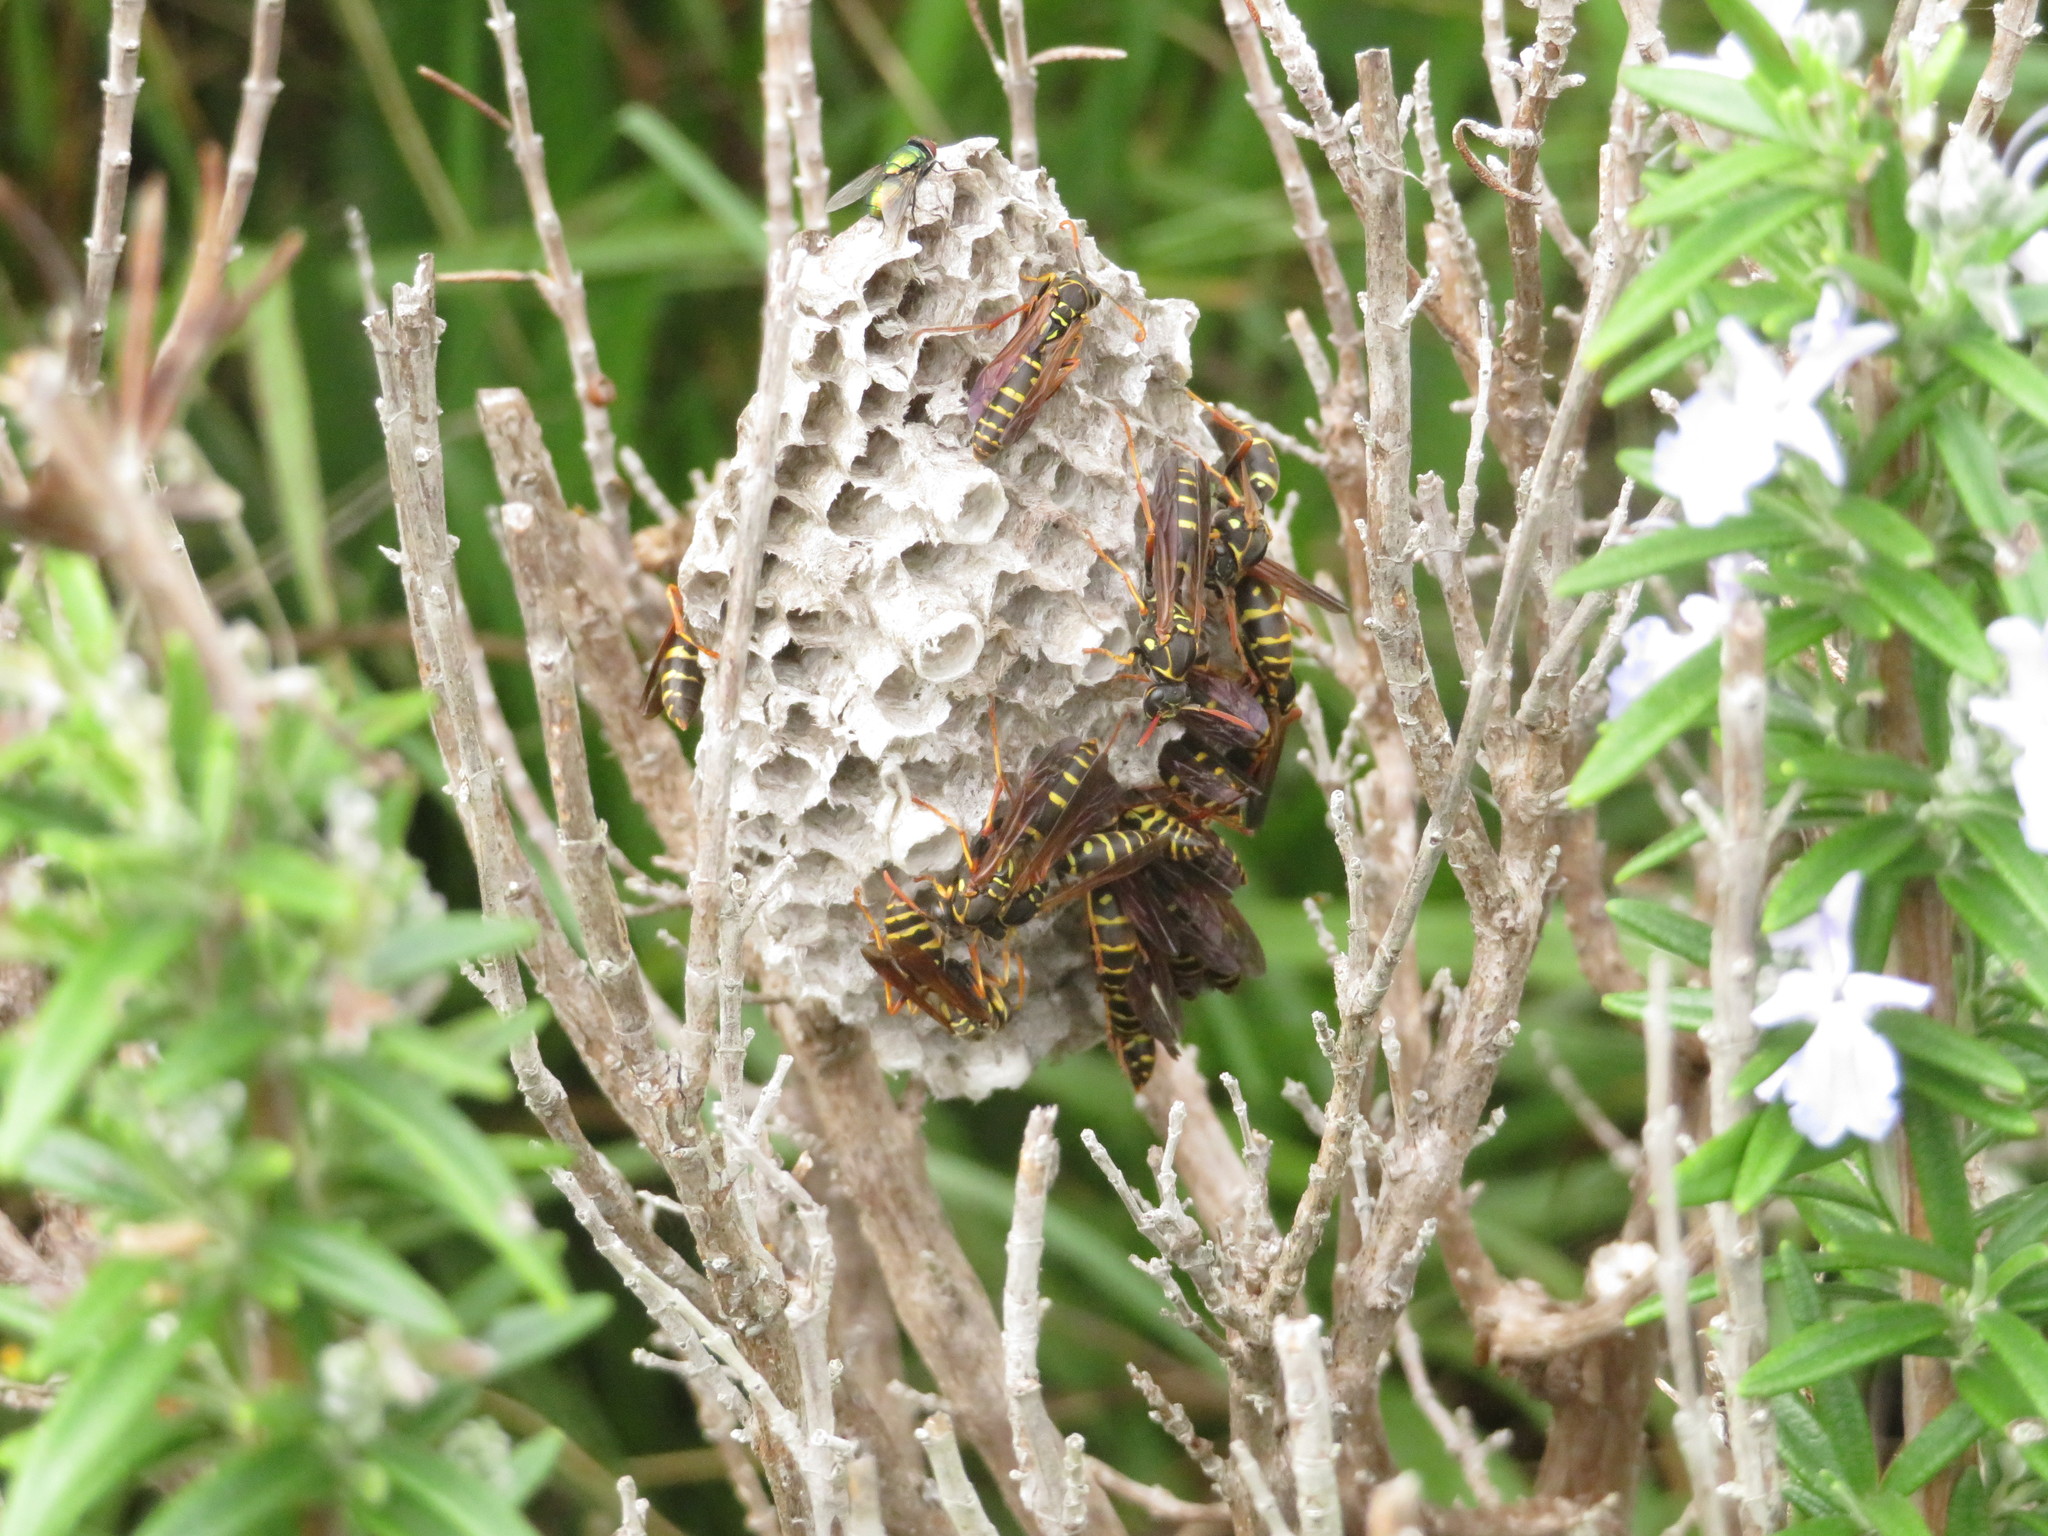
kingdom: Animalia
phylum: Arthropoda
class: Insecta
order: Hymenoptera
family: Eumenidae
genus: Polistes
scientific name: Polistes chinensis
